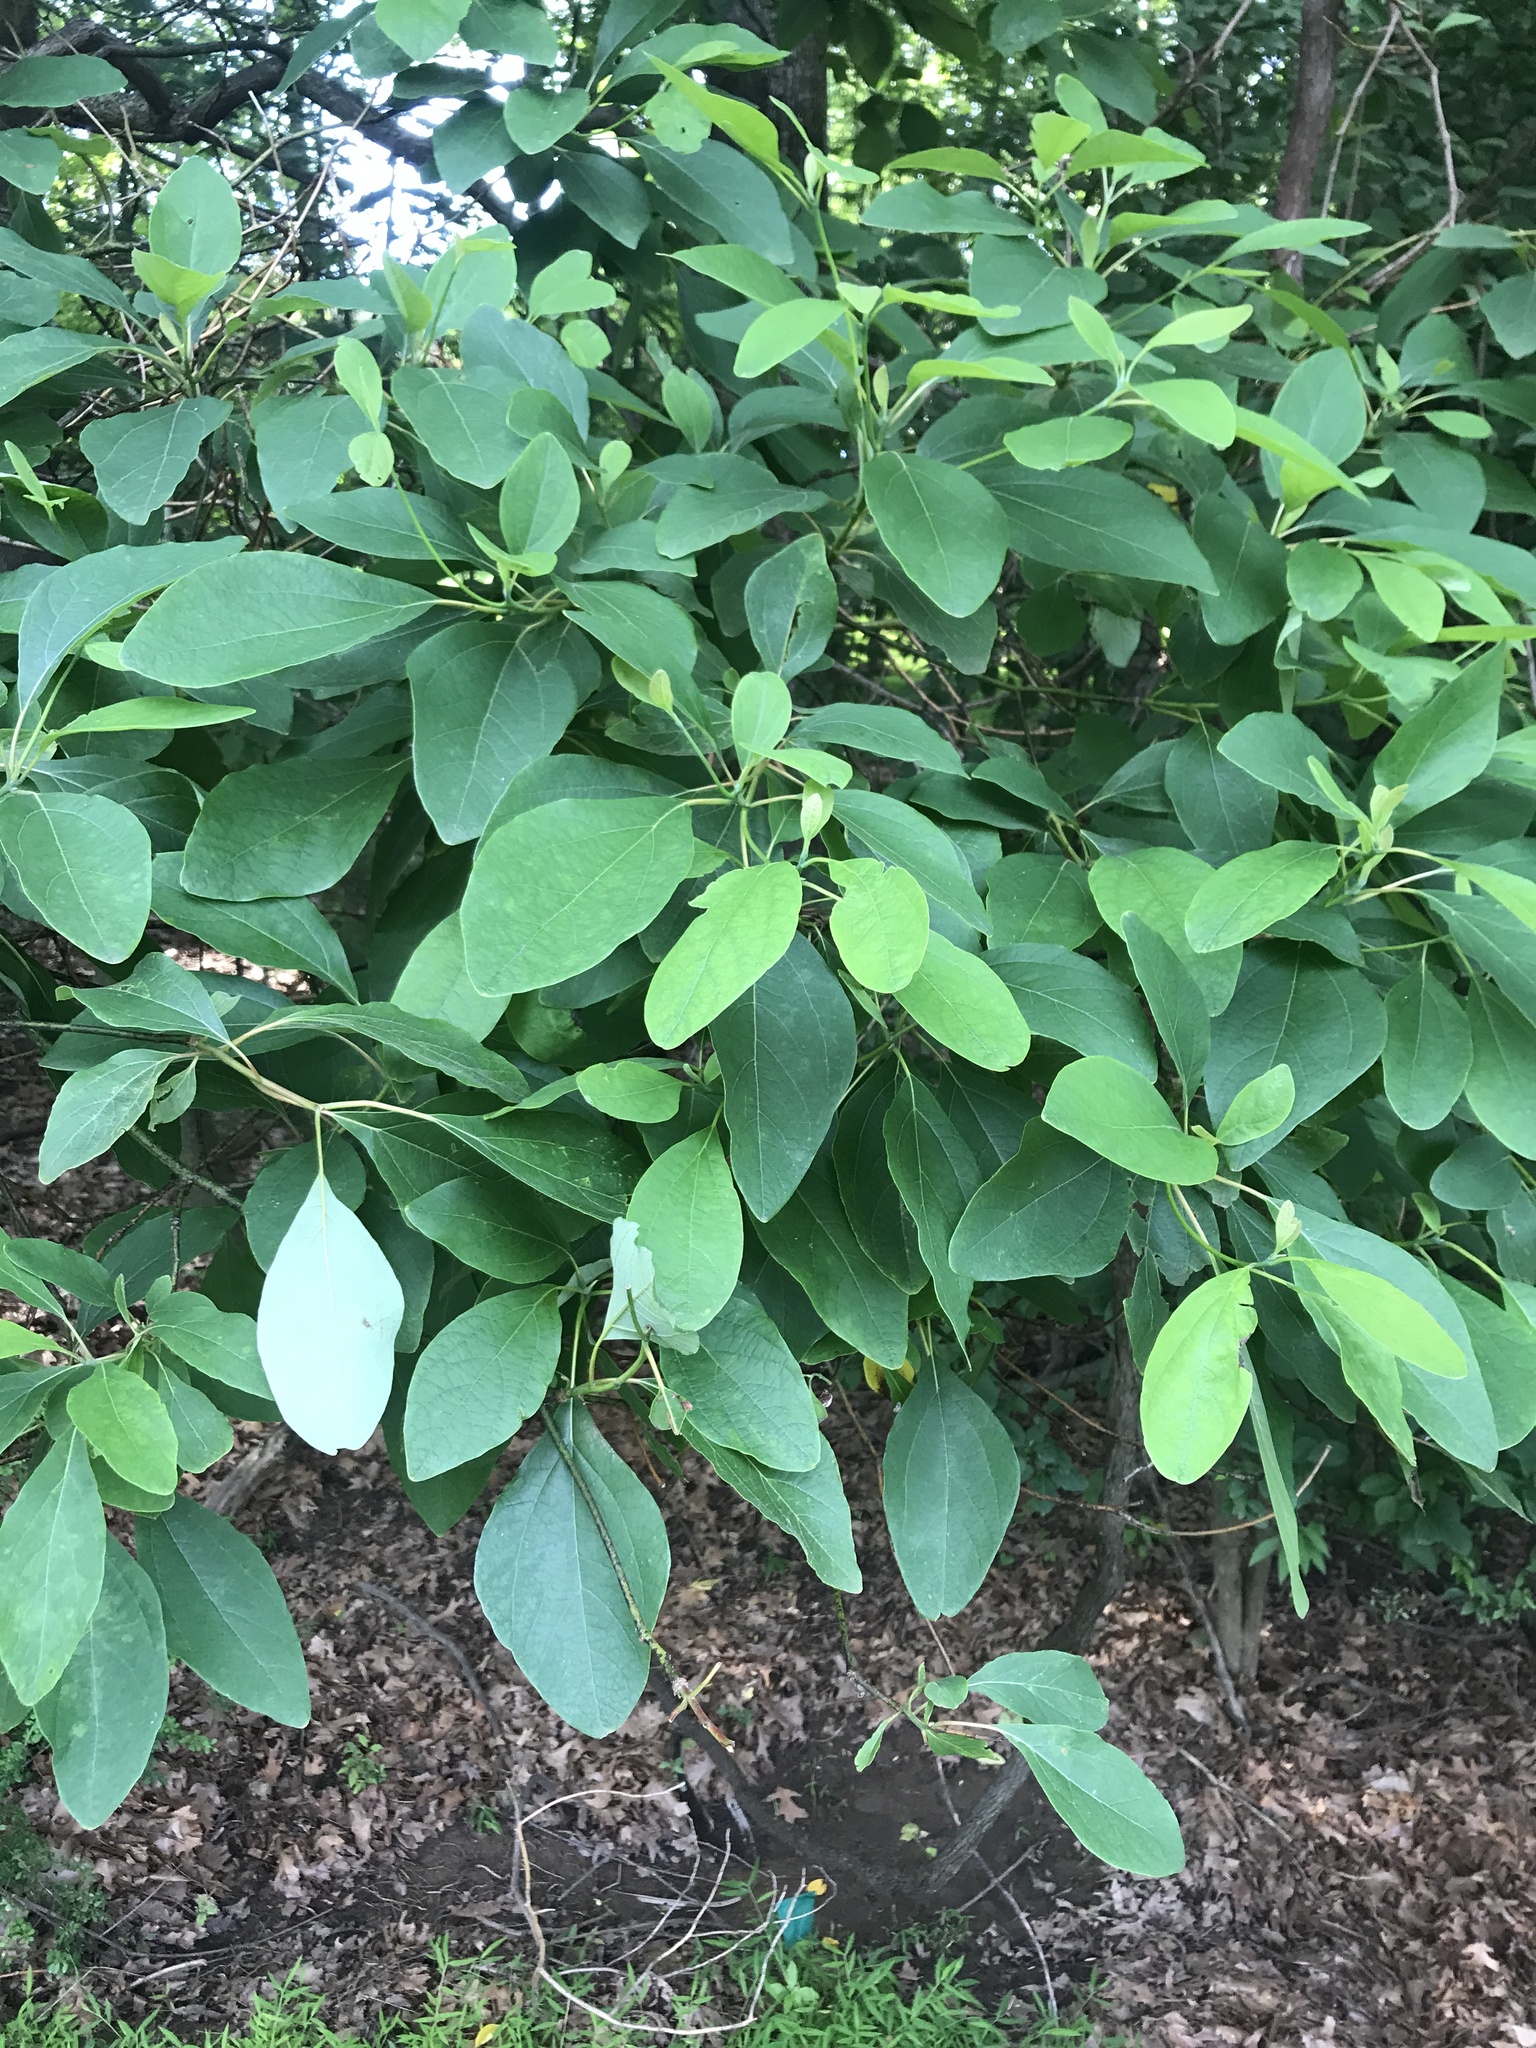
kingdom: Plantae
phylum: Tracheophyta
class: Magnoliopsida
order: Laurales
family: Lauraceae
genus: Sassafras
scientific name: Sassafras albidum
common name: Sassafras
